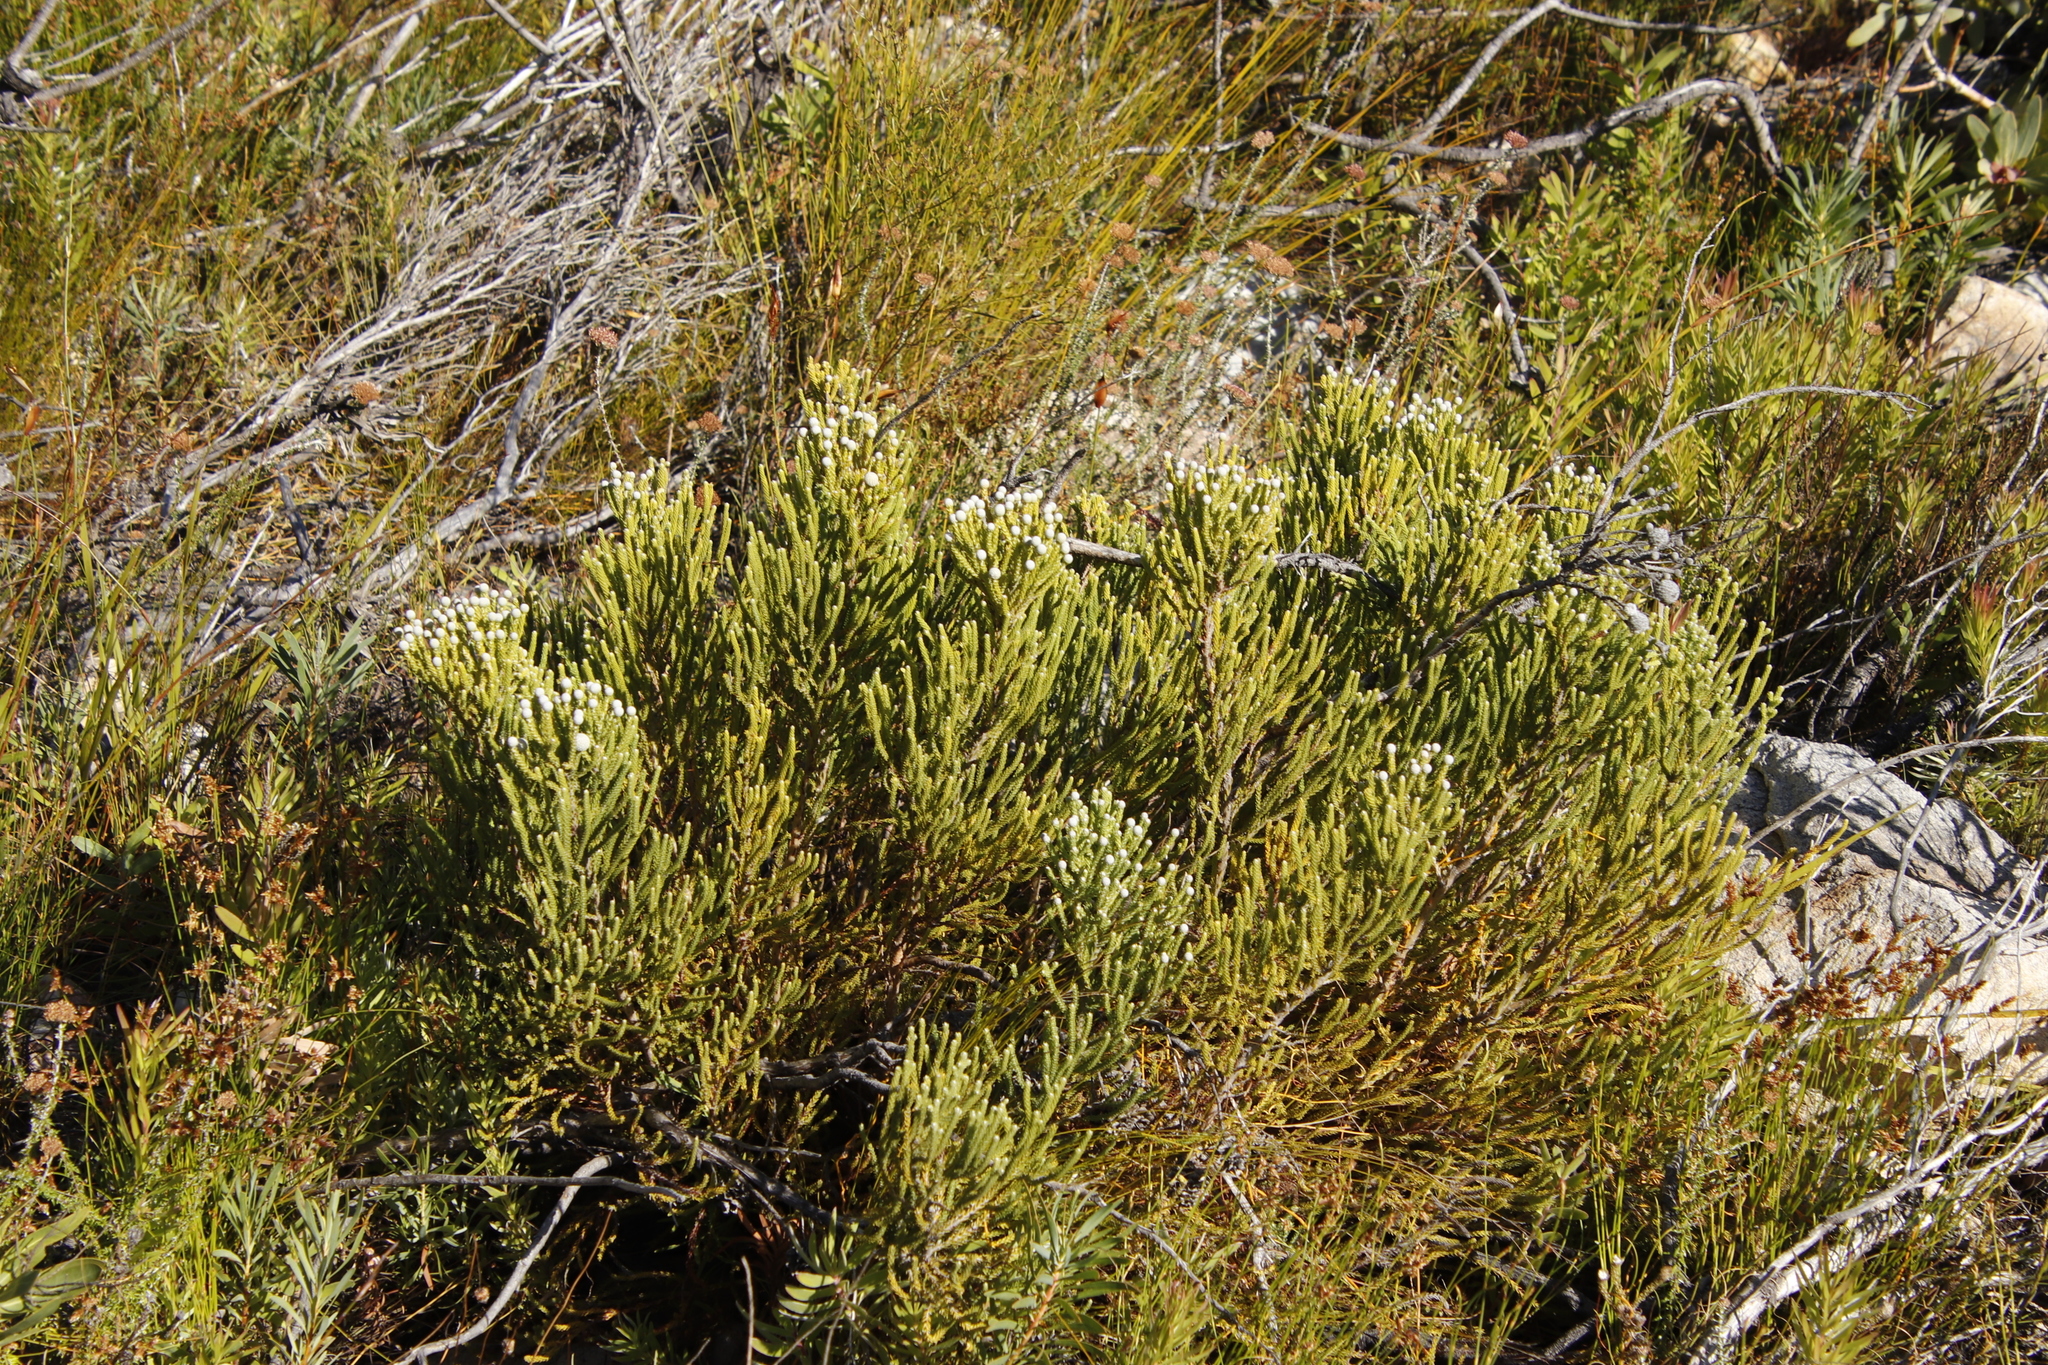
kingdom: Plantae
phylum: Tracheophyta
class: Magnoliopsida
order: Bruniales
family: Bruniaceae
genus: Brunia
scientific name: Brunia noduliflora
